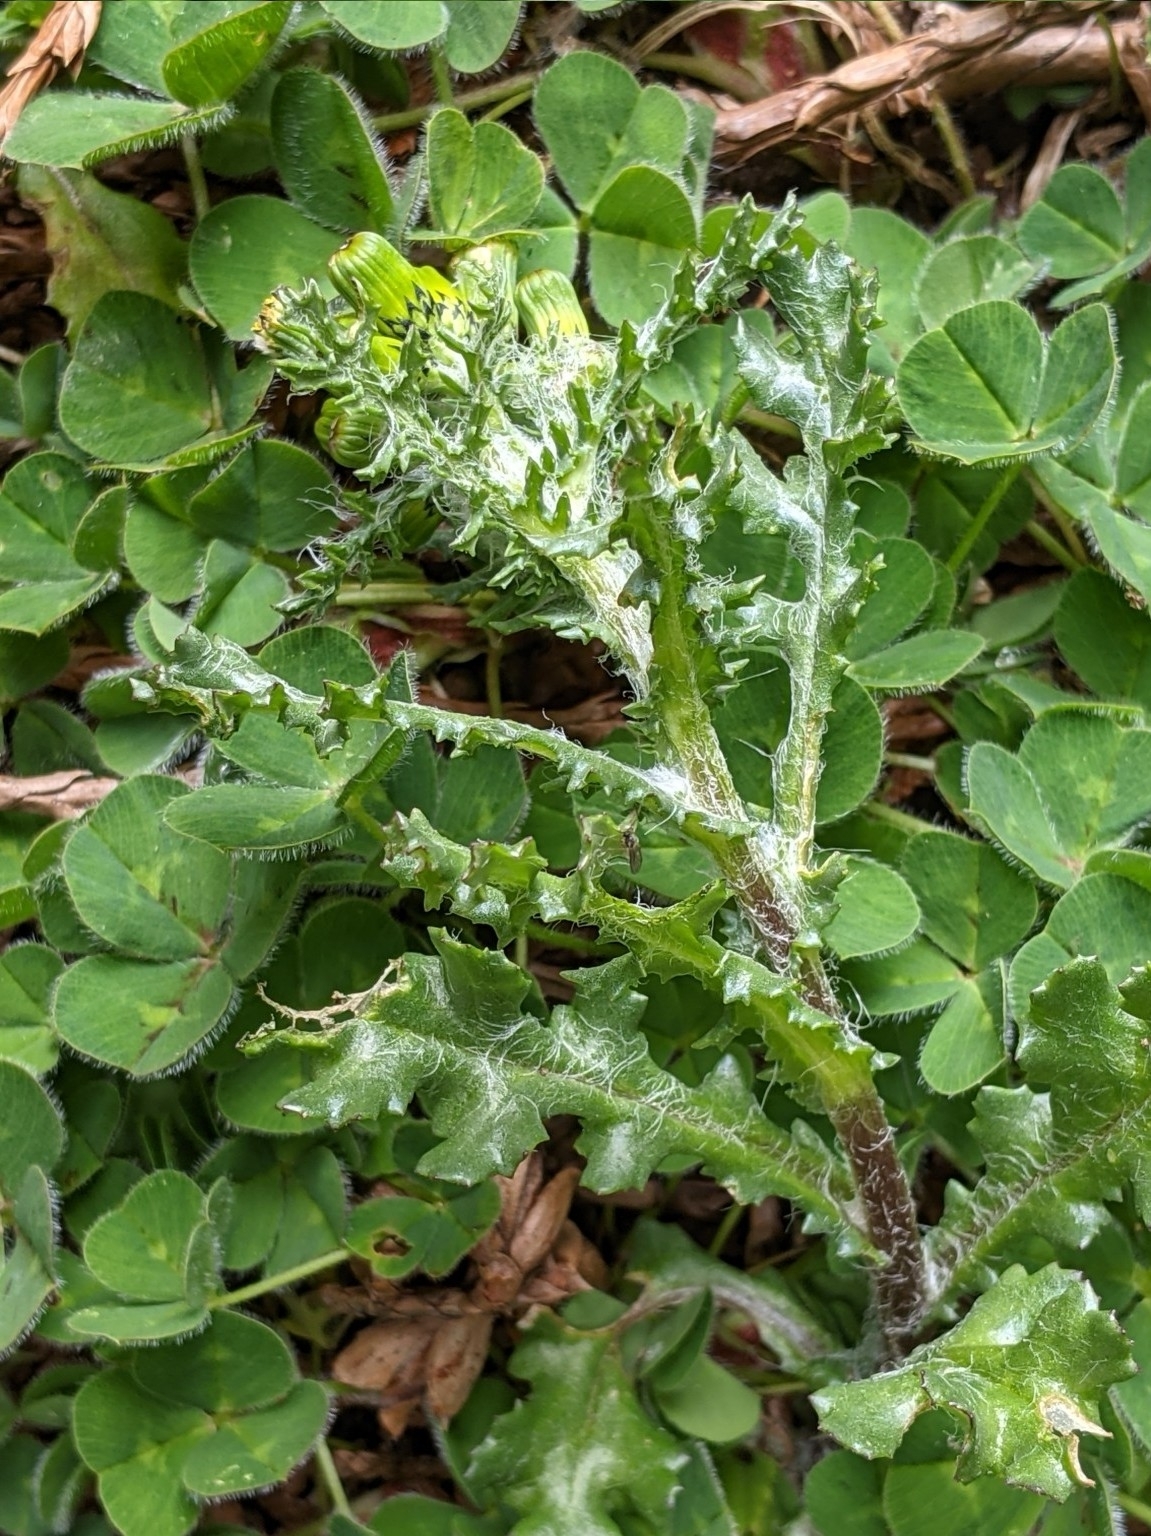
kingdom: Plantae
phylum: Tracheophyta
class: Magnoliopsida
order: Asterales
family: Asteraceae
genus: Senecio
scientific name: Senecio vulgaris
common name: Old-man-in-the-spring
